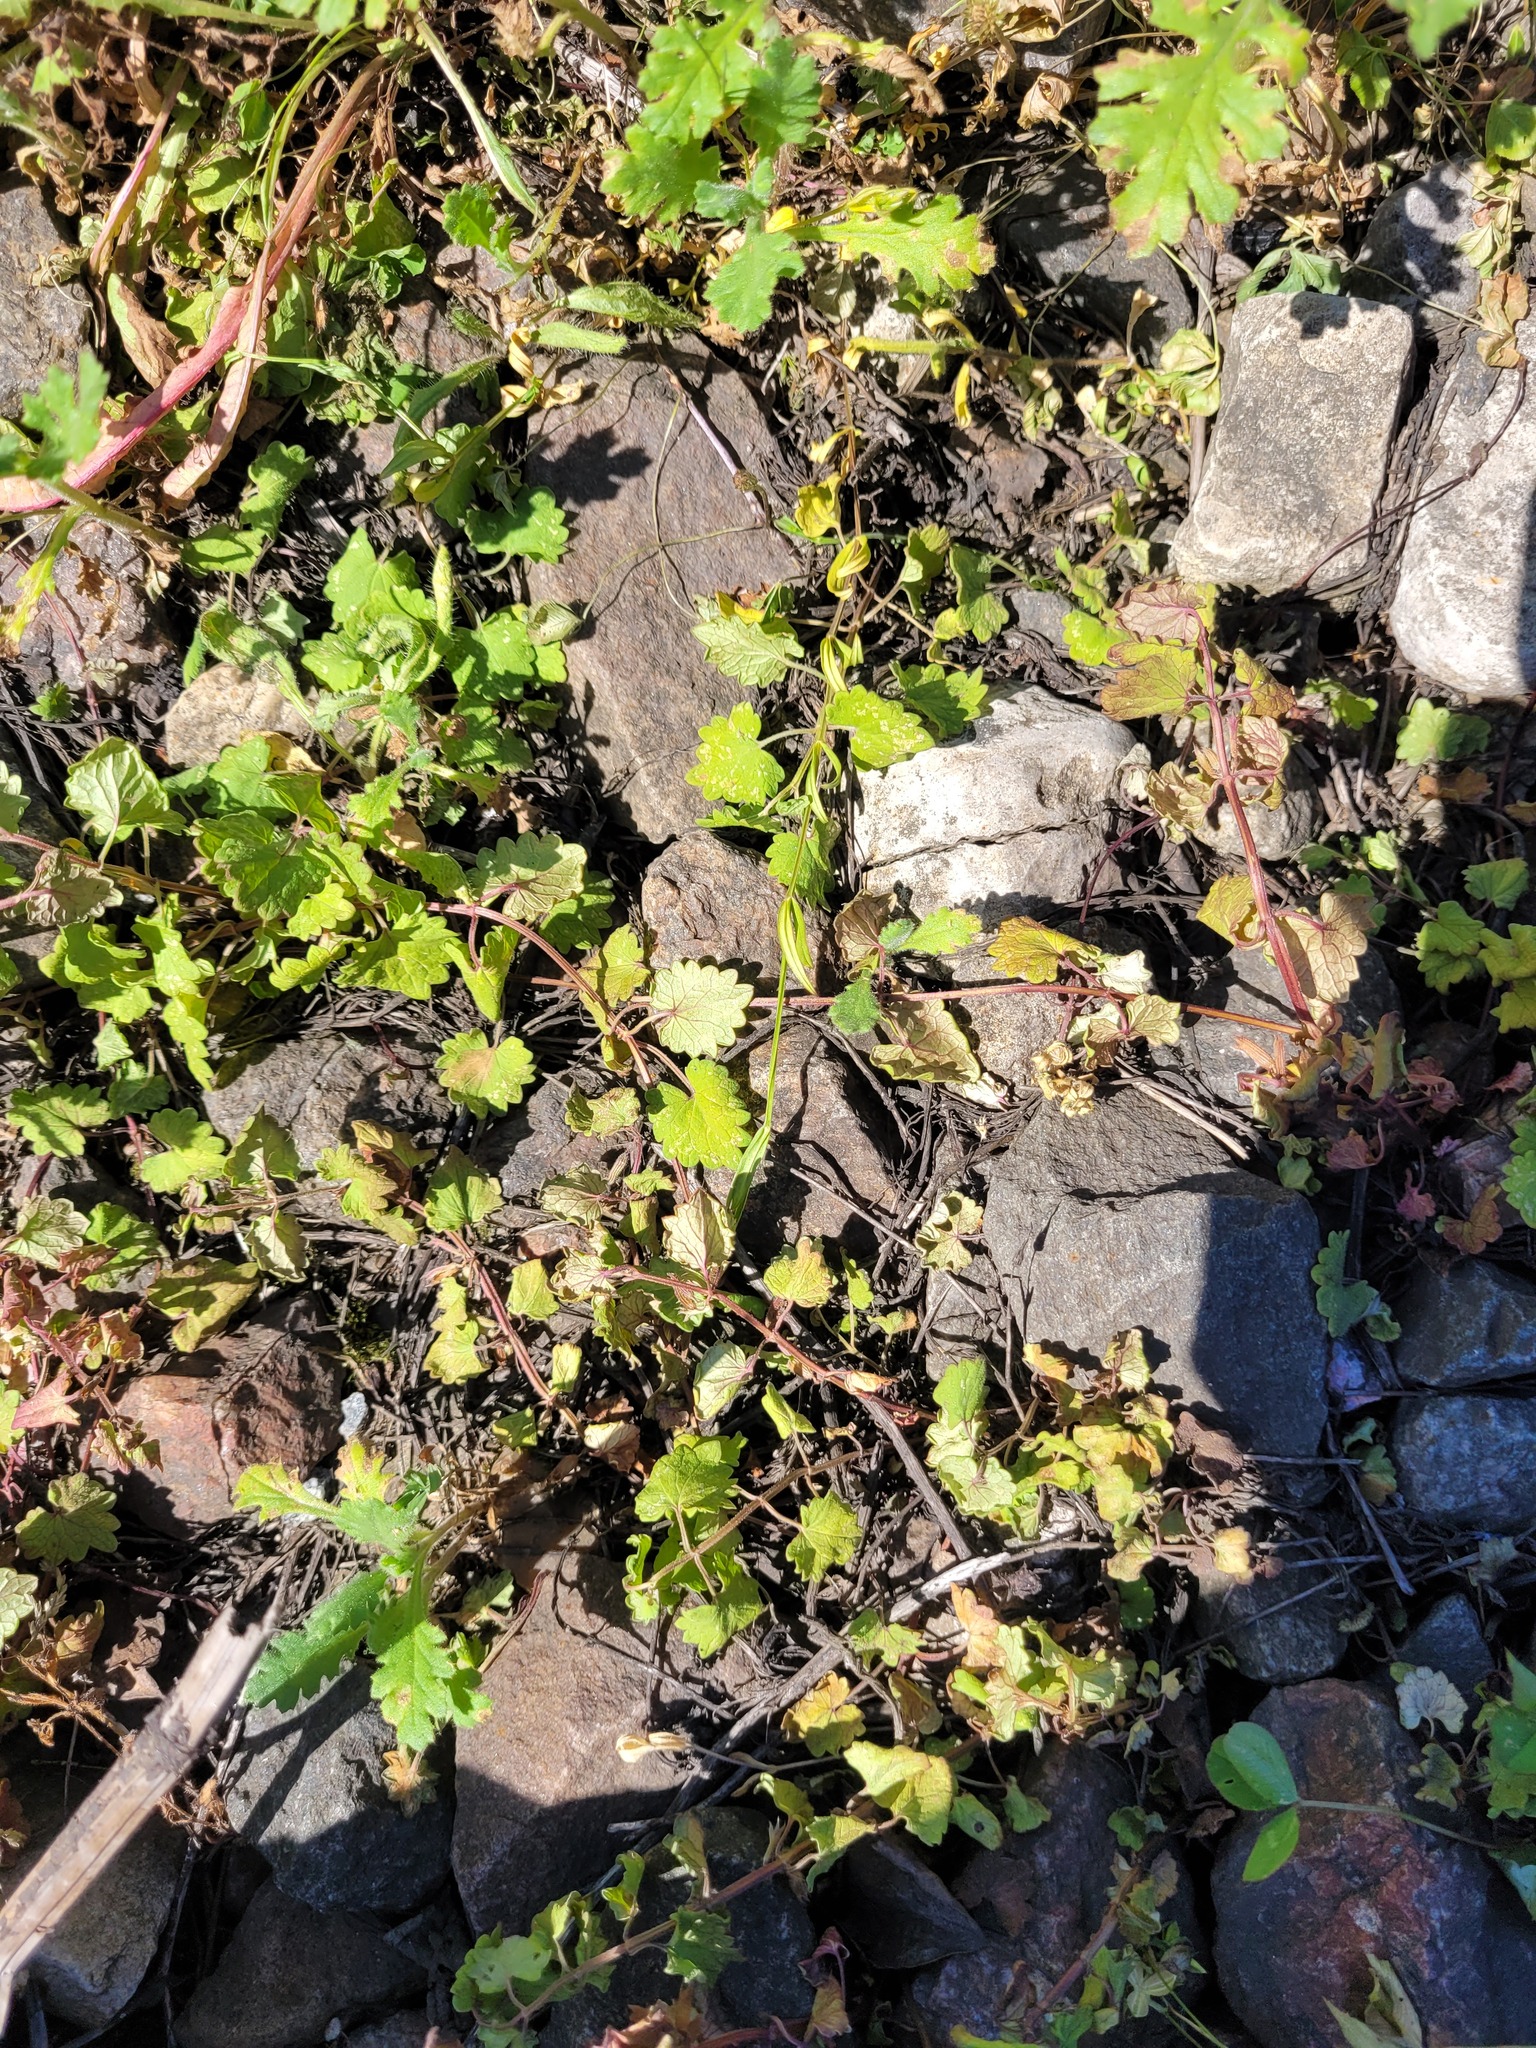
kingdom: Plantae
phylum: Tracheophyta
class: Magnoliopsida
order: Lamiales
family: Lamiaceae
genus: Glechoma
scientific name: Glechoma hederacea
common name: Ground ivy
